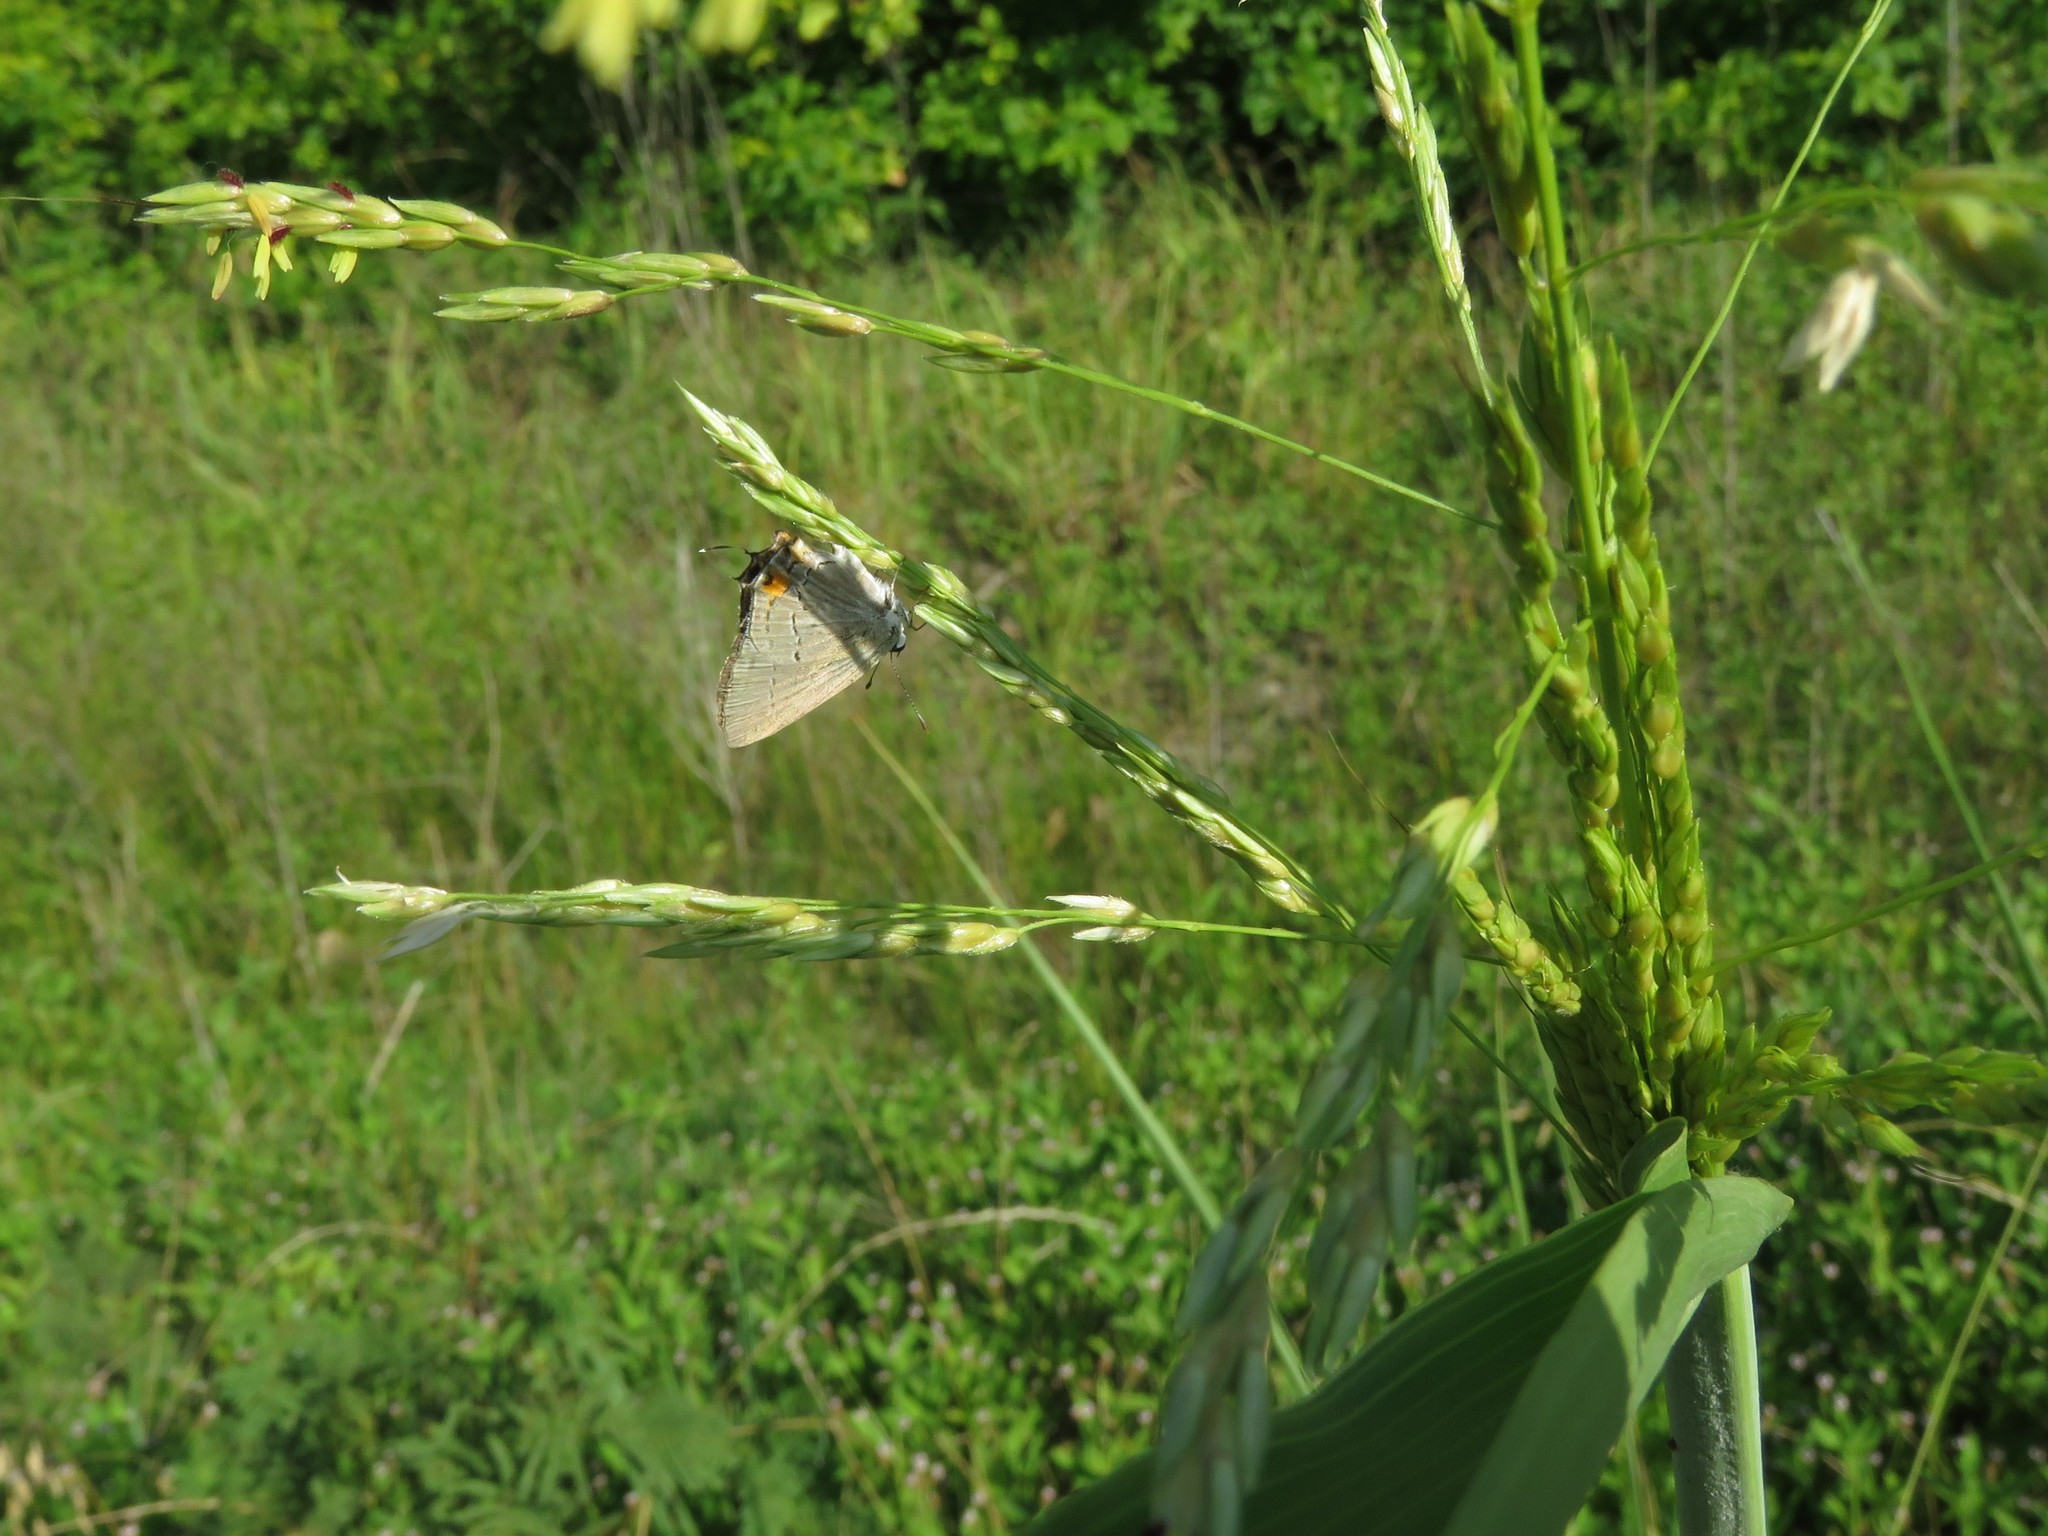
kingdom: Plantae
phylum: Tracheophyta
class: Liliopsida
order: Poales
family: Poaceae
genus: Sorghum
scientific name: Sorghum halepense
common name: Johnson-grass
